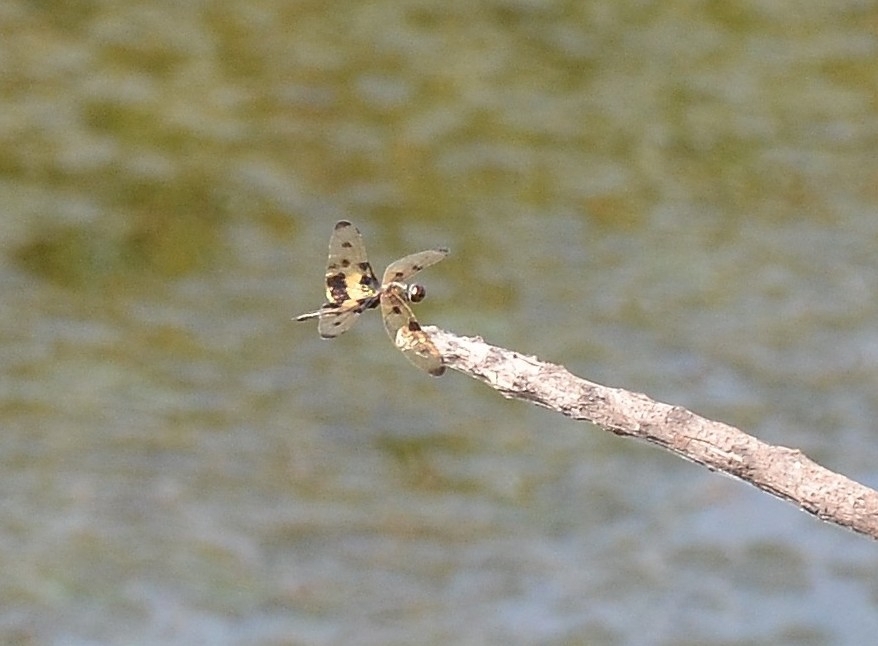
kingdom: Animalia
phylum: Arthropoda
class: Insecta
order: Odonata
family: Libellulidae
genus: Rhyothemis
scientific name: Rhyothemis variegata
